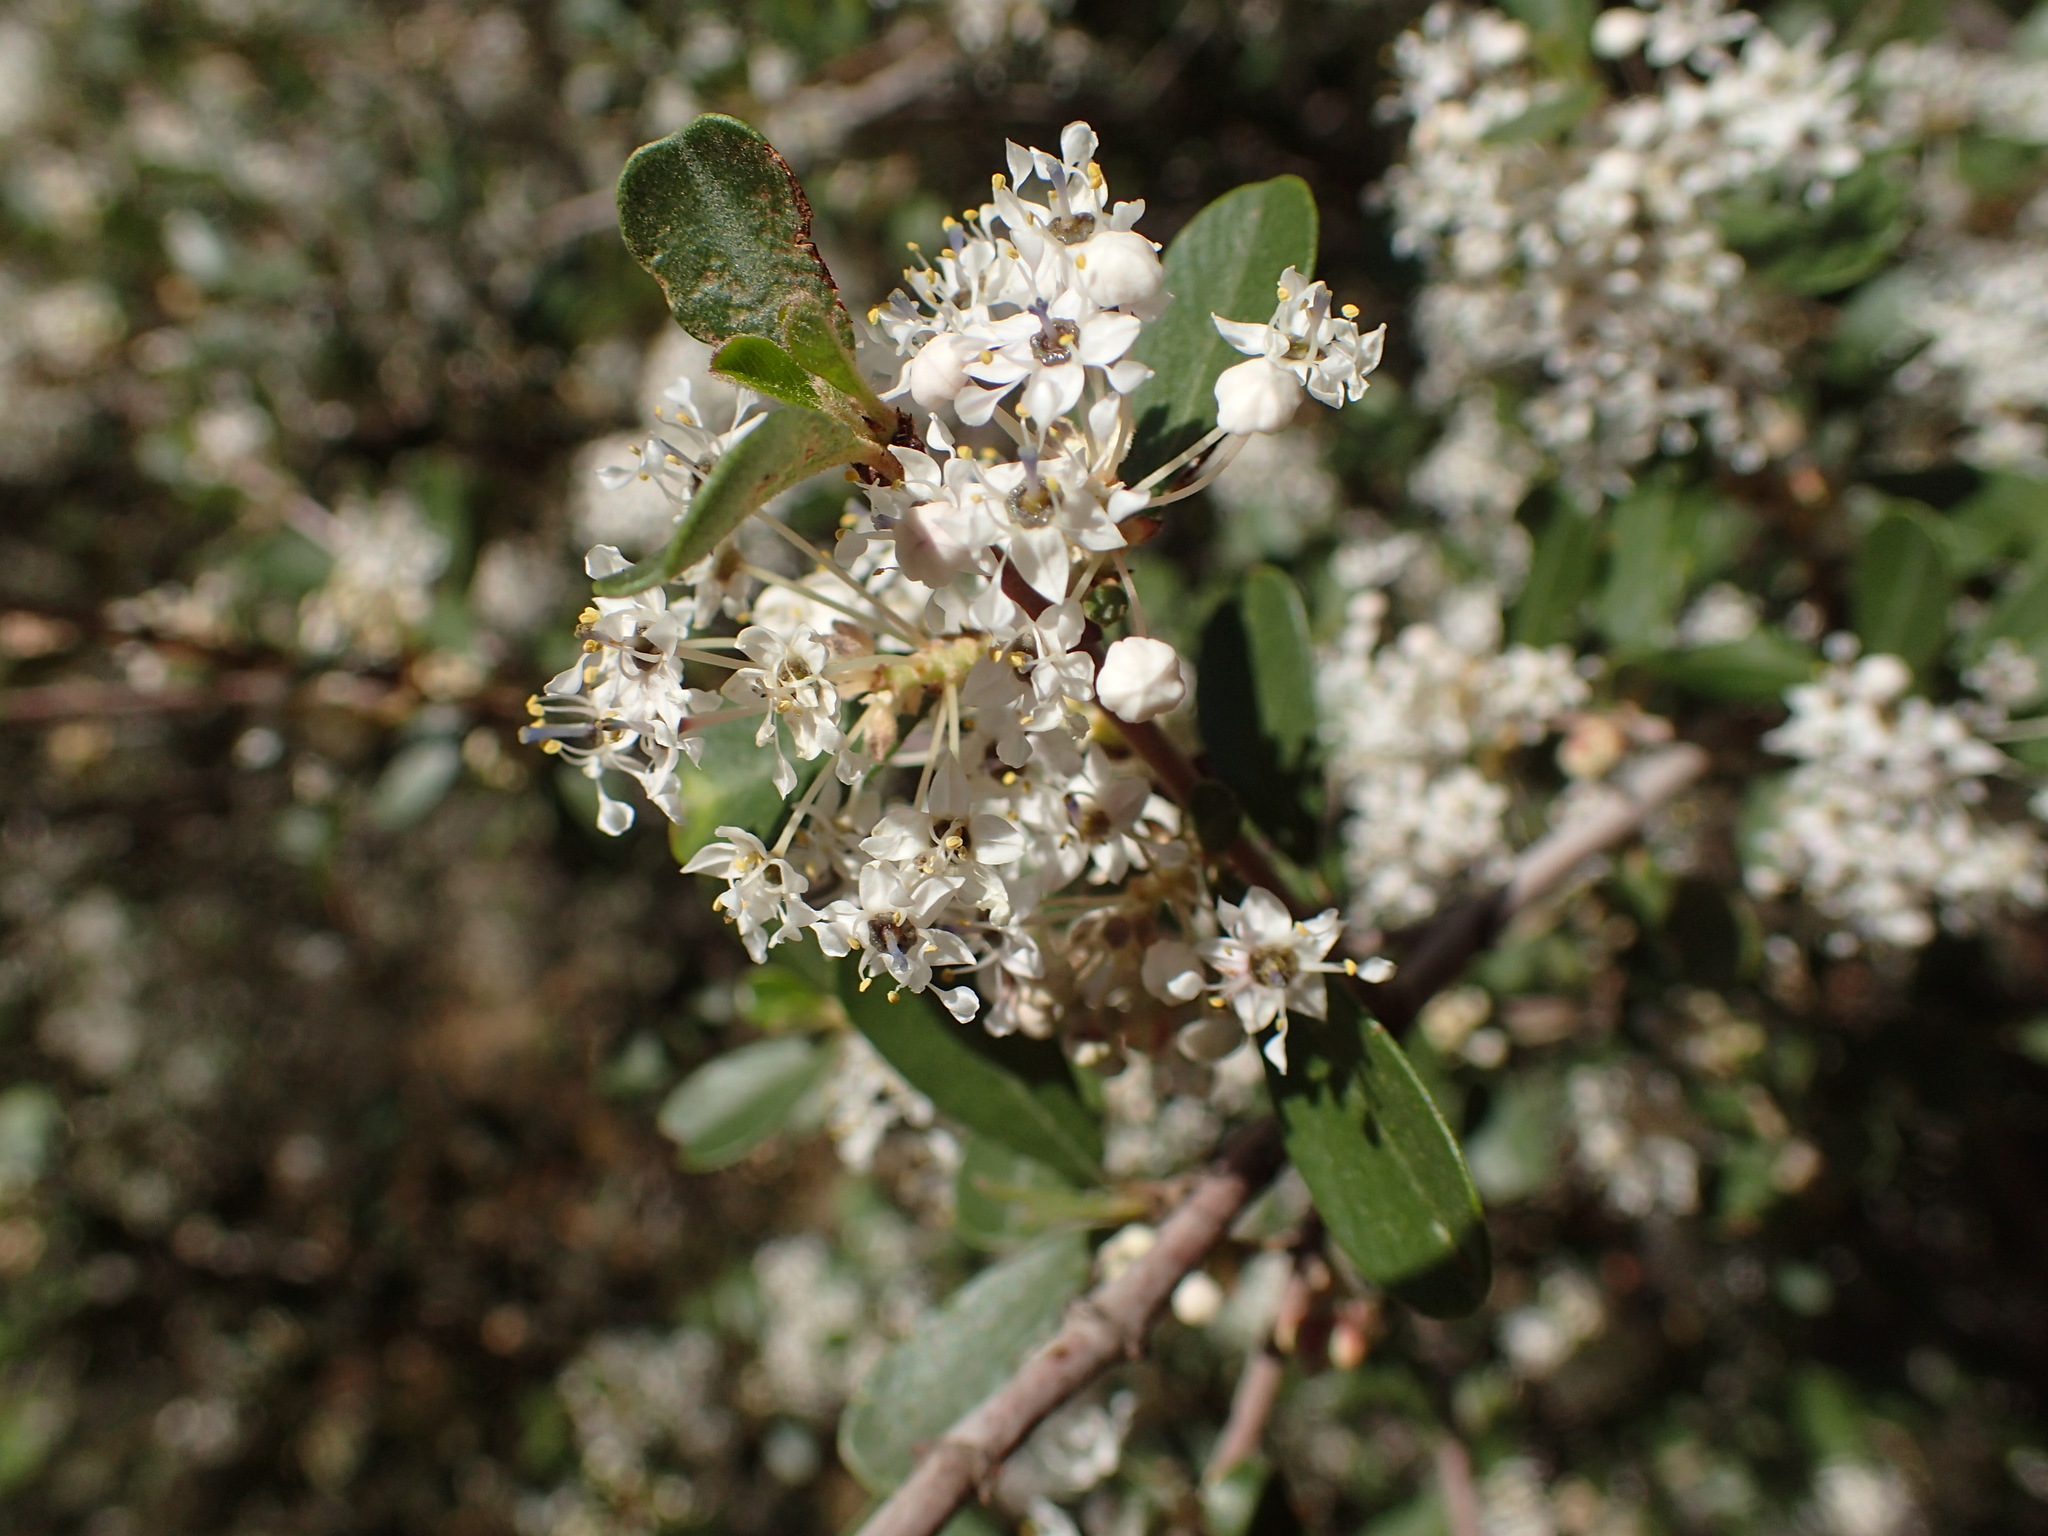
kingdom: Plantae
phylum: Tracheophyta
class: Magnoliopsida
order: Rosales
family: Rhamnaceae
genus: Ceanothus
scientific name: Ceanothus cuneatus
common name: Cuneate ceanothus
